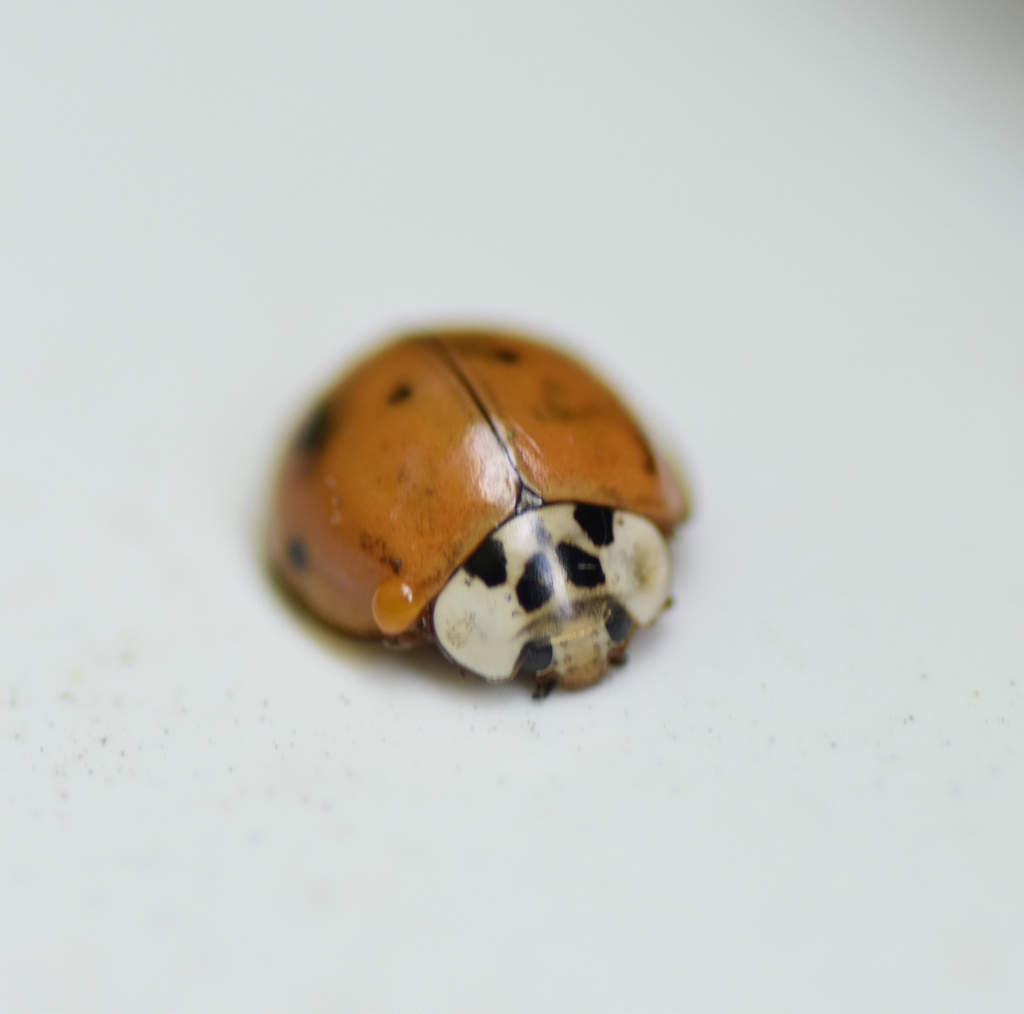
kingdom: Animalia
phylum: Arthropoda
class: Insecta
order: Coleoptera
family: Coccinellidae
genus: Harmonia
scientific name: Harmonia axyridis
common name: Harlequin ladybird
